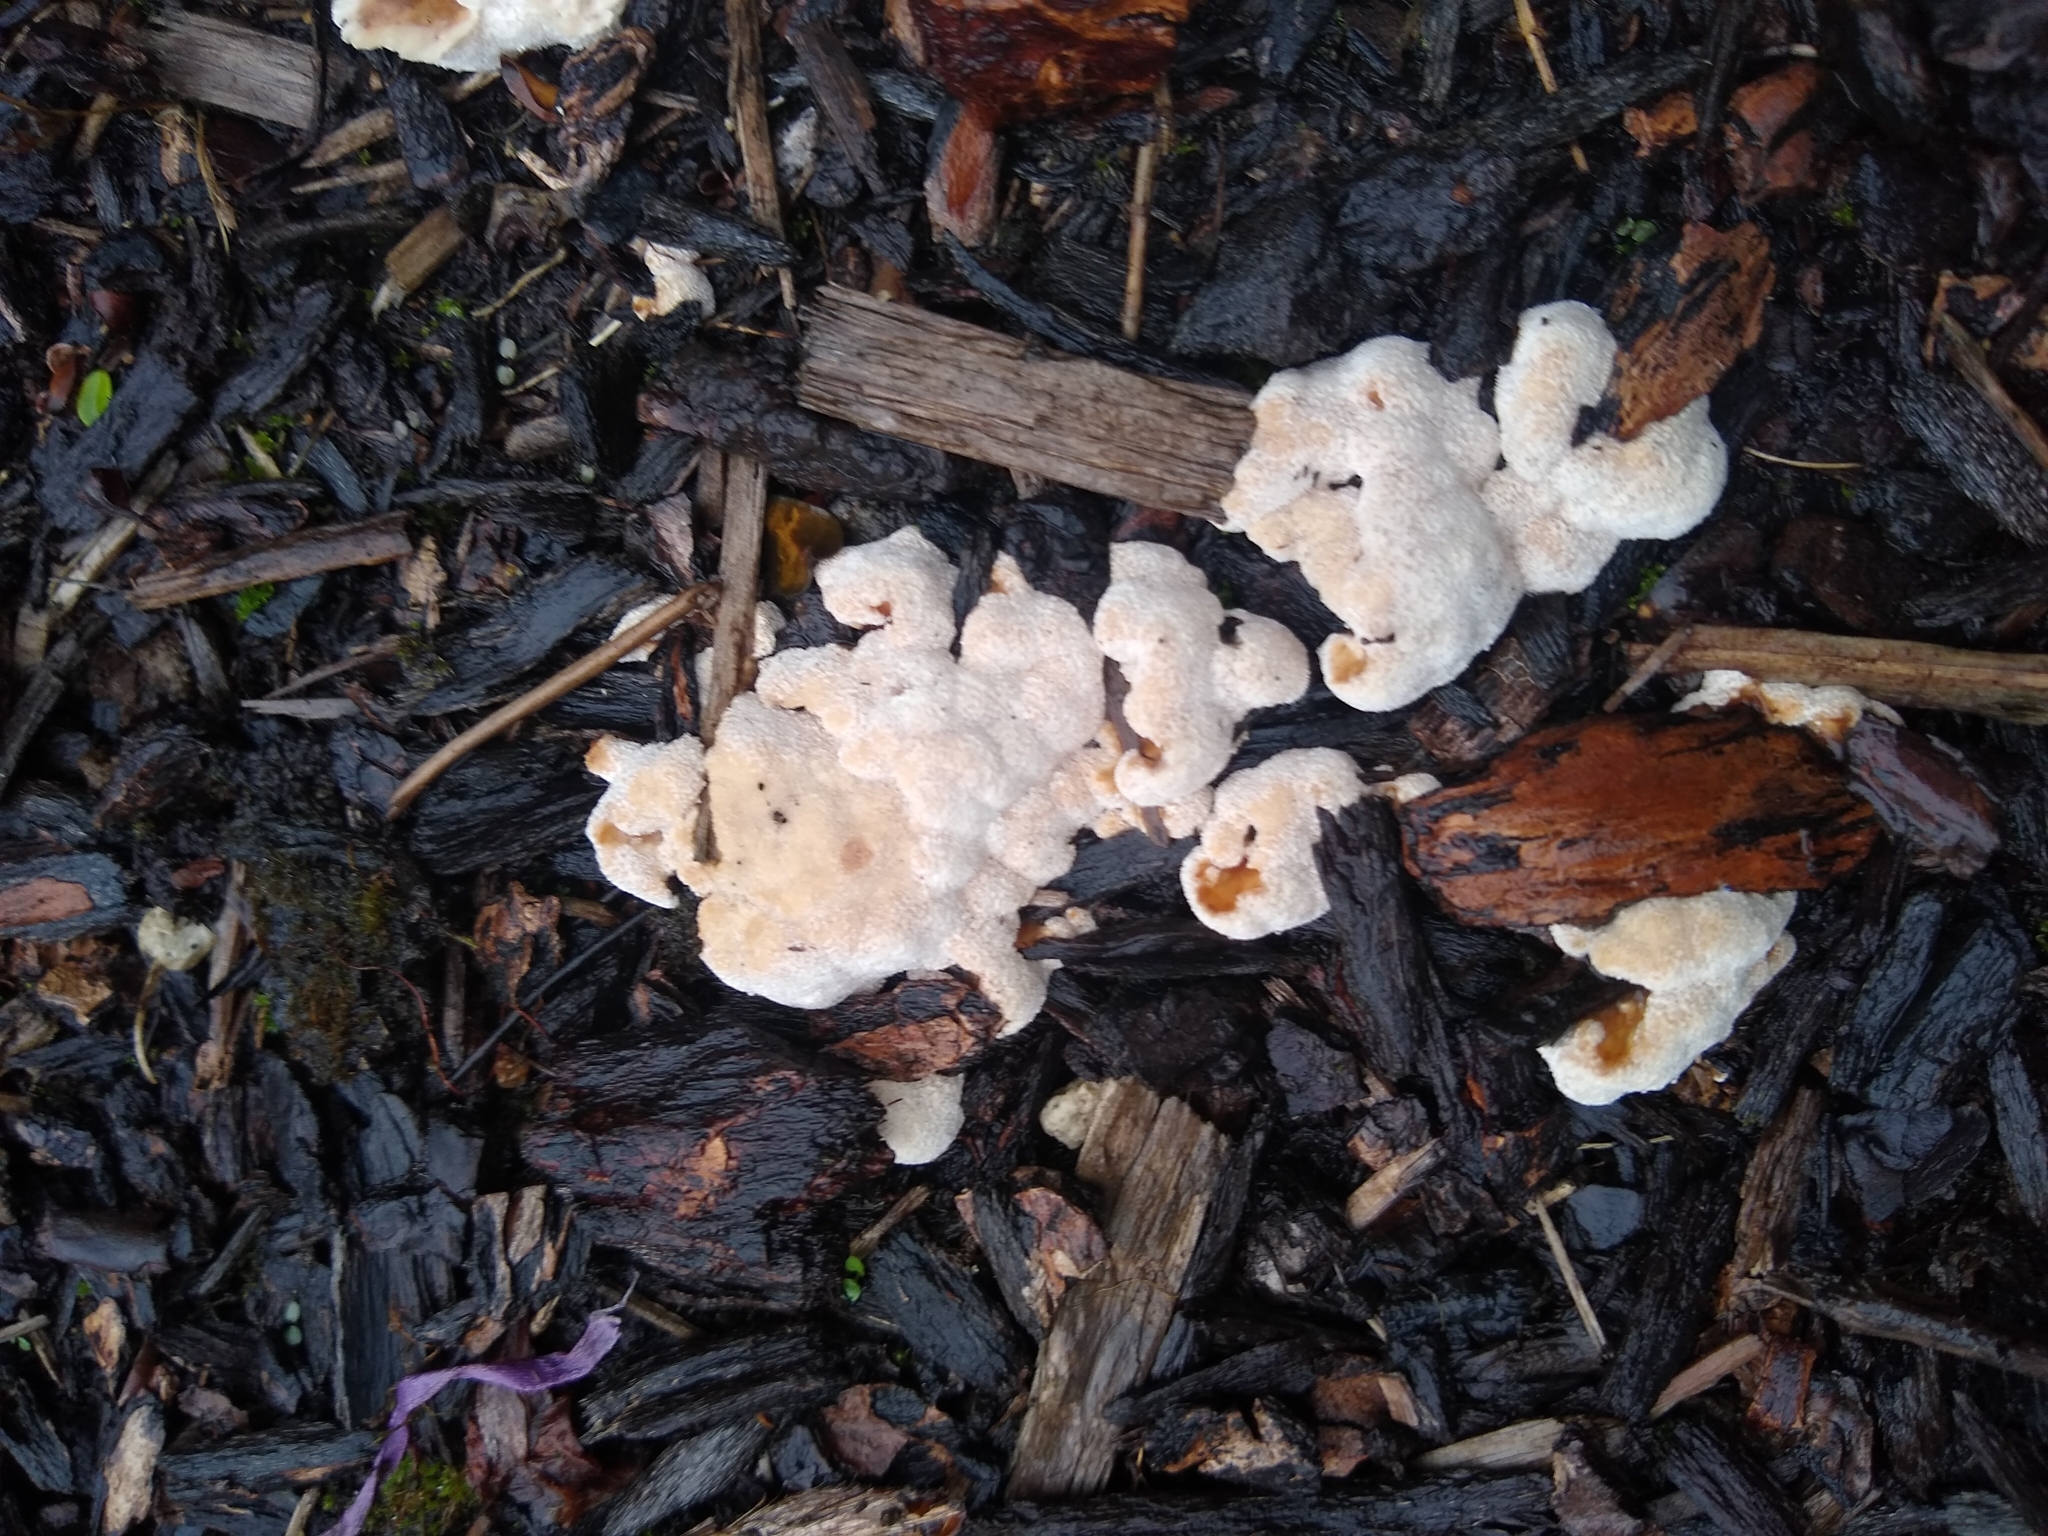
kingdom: Fungi
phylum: Basidiomycota
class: Agaricomycetes
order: Polyporales
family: Podoscyphaceae
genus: Abortiporus
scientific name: Abortiporus biennis
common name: Blushing rosette
